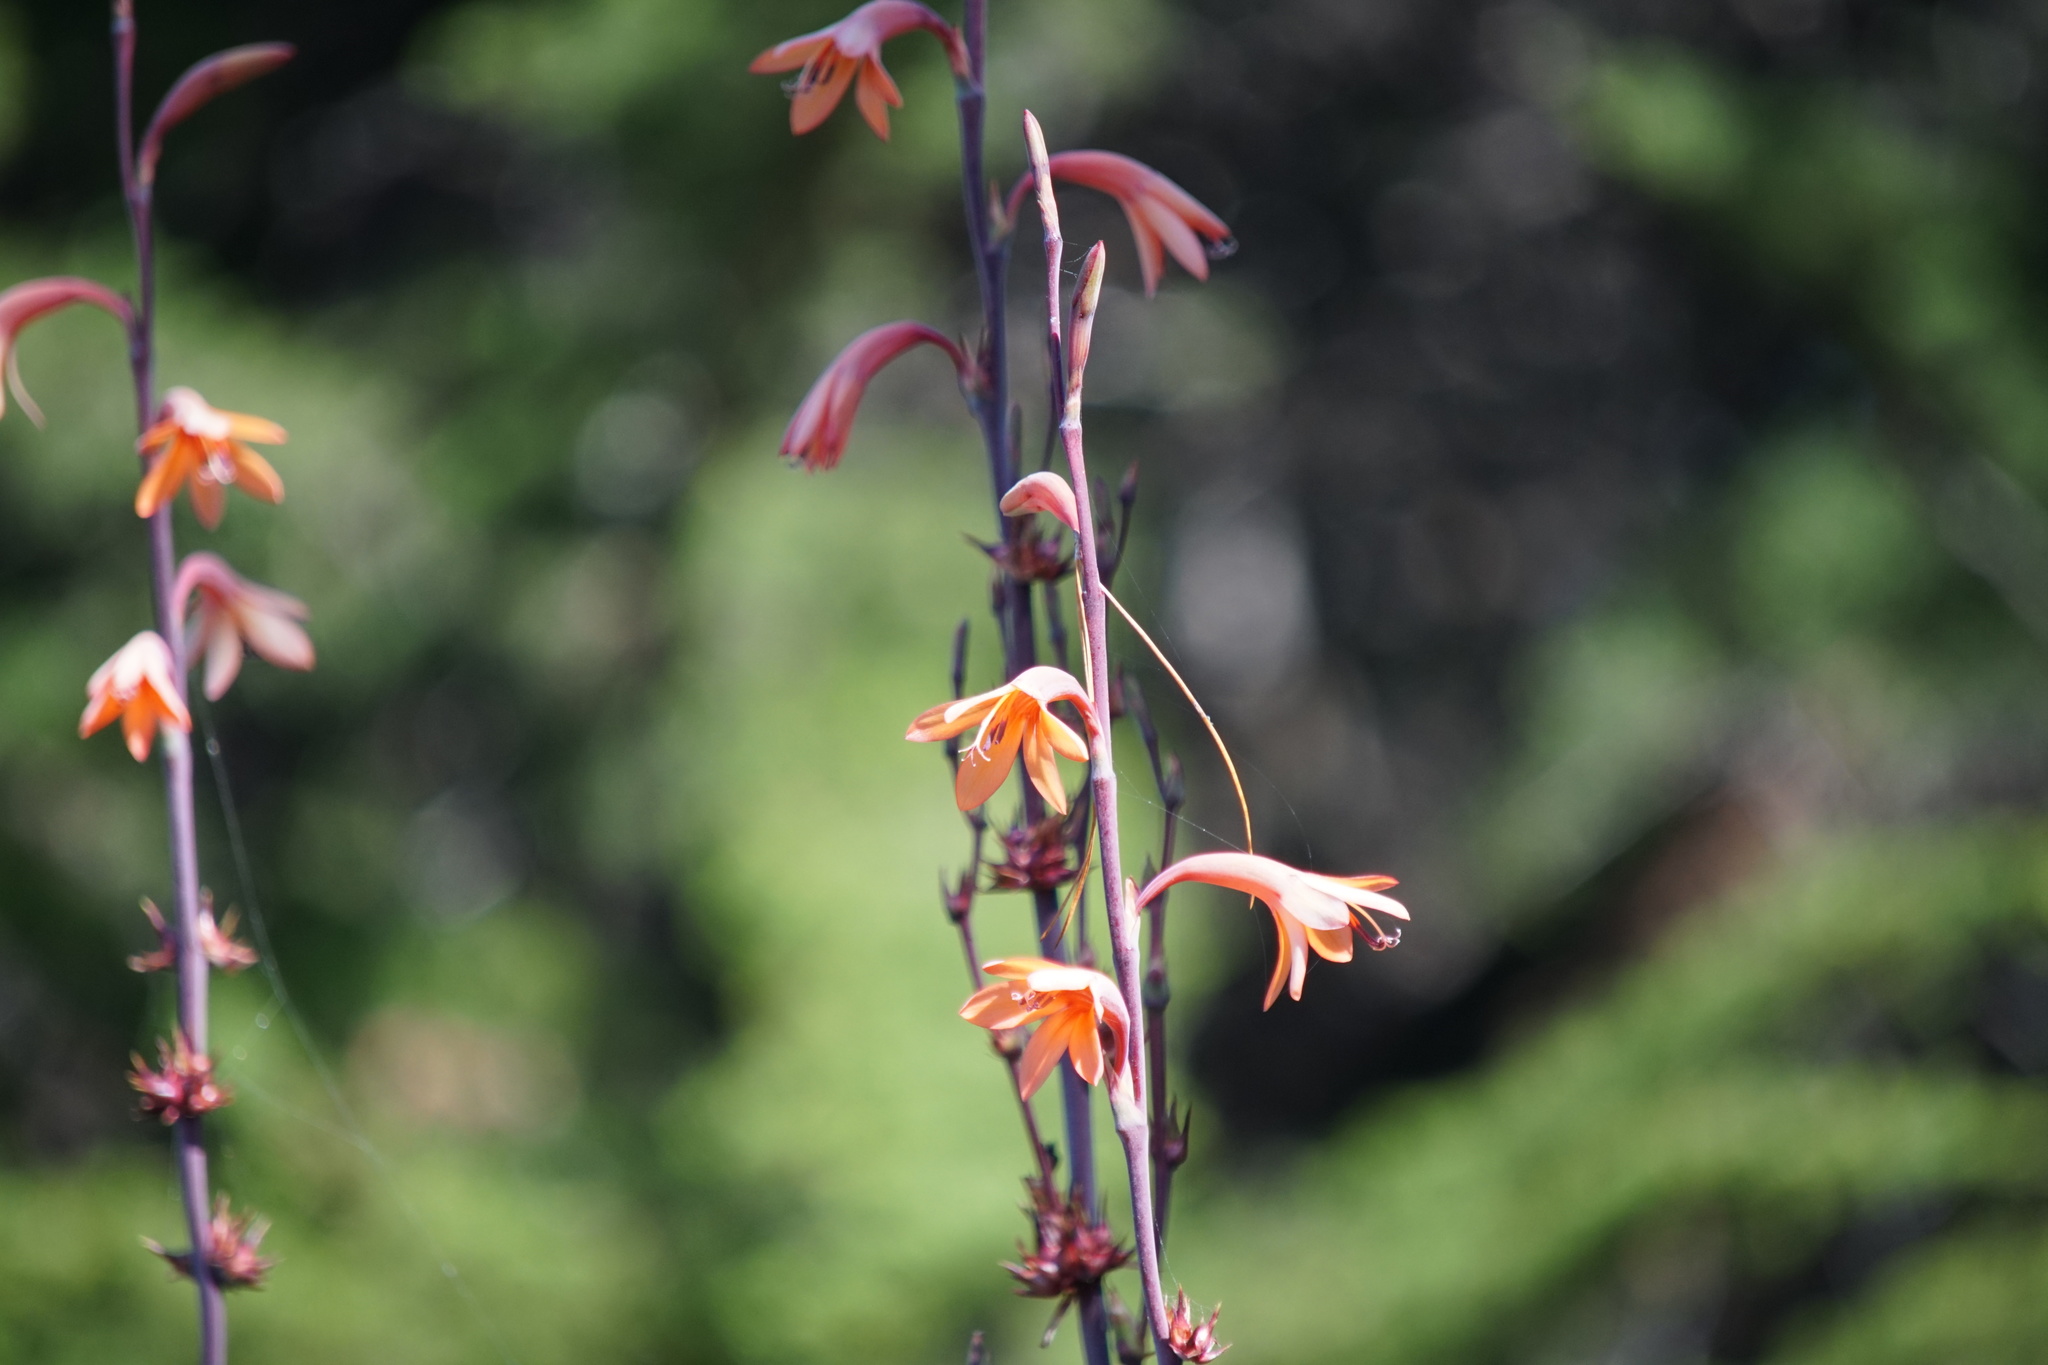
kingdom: Plantae
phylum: Tracheophyta
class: Liliopsida
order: Asparagales
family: Iridaceae
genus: Watsonia
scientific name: Watsonia meriana
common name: Bulbil bugle-lily
